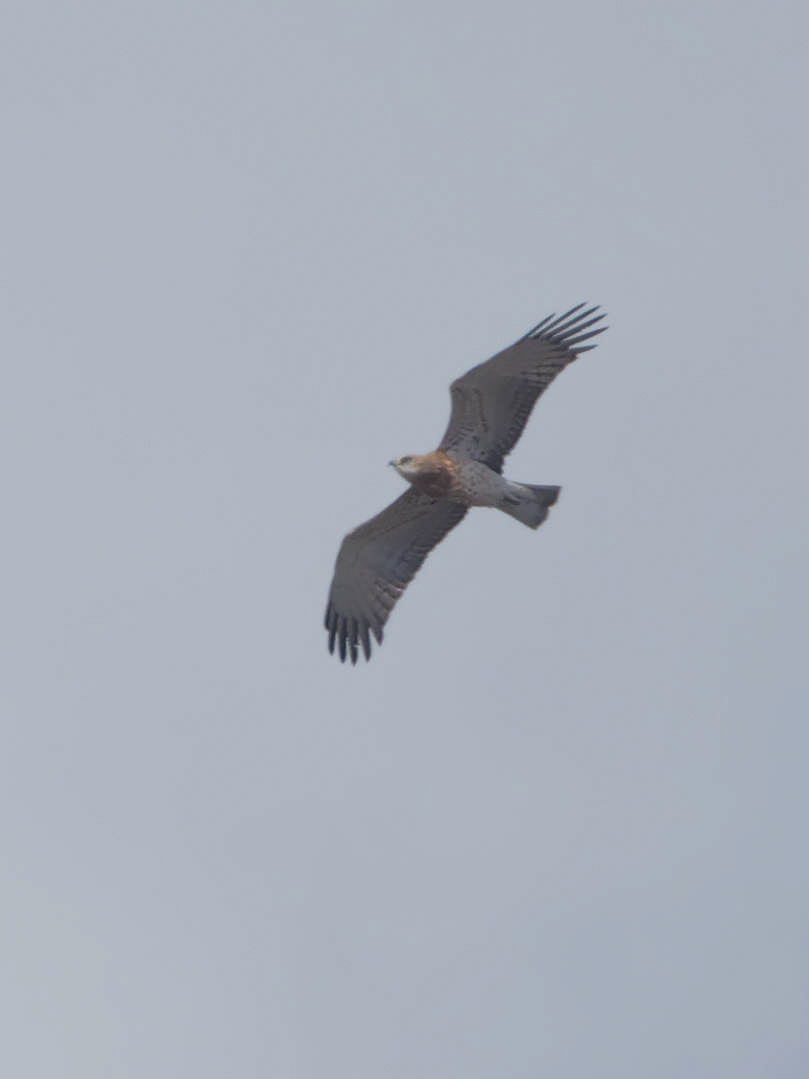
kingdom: Animalia
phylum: Chordata
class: Aves
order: Accipitriformes
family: Accipitridae
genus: Circaetus
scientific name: Circaetus gallicus
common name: Short-toed snake eagle
